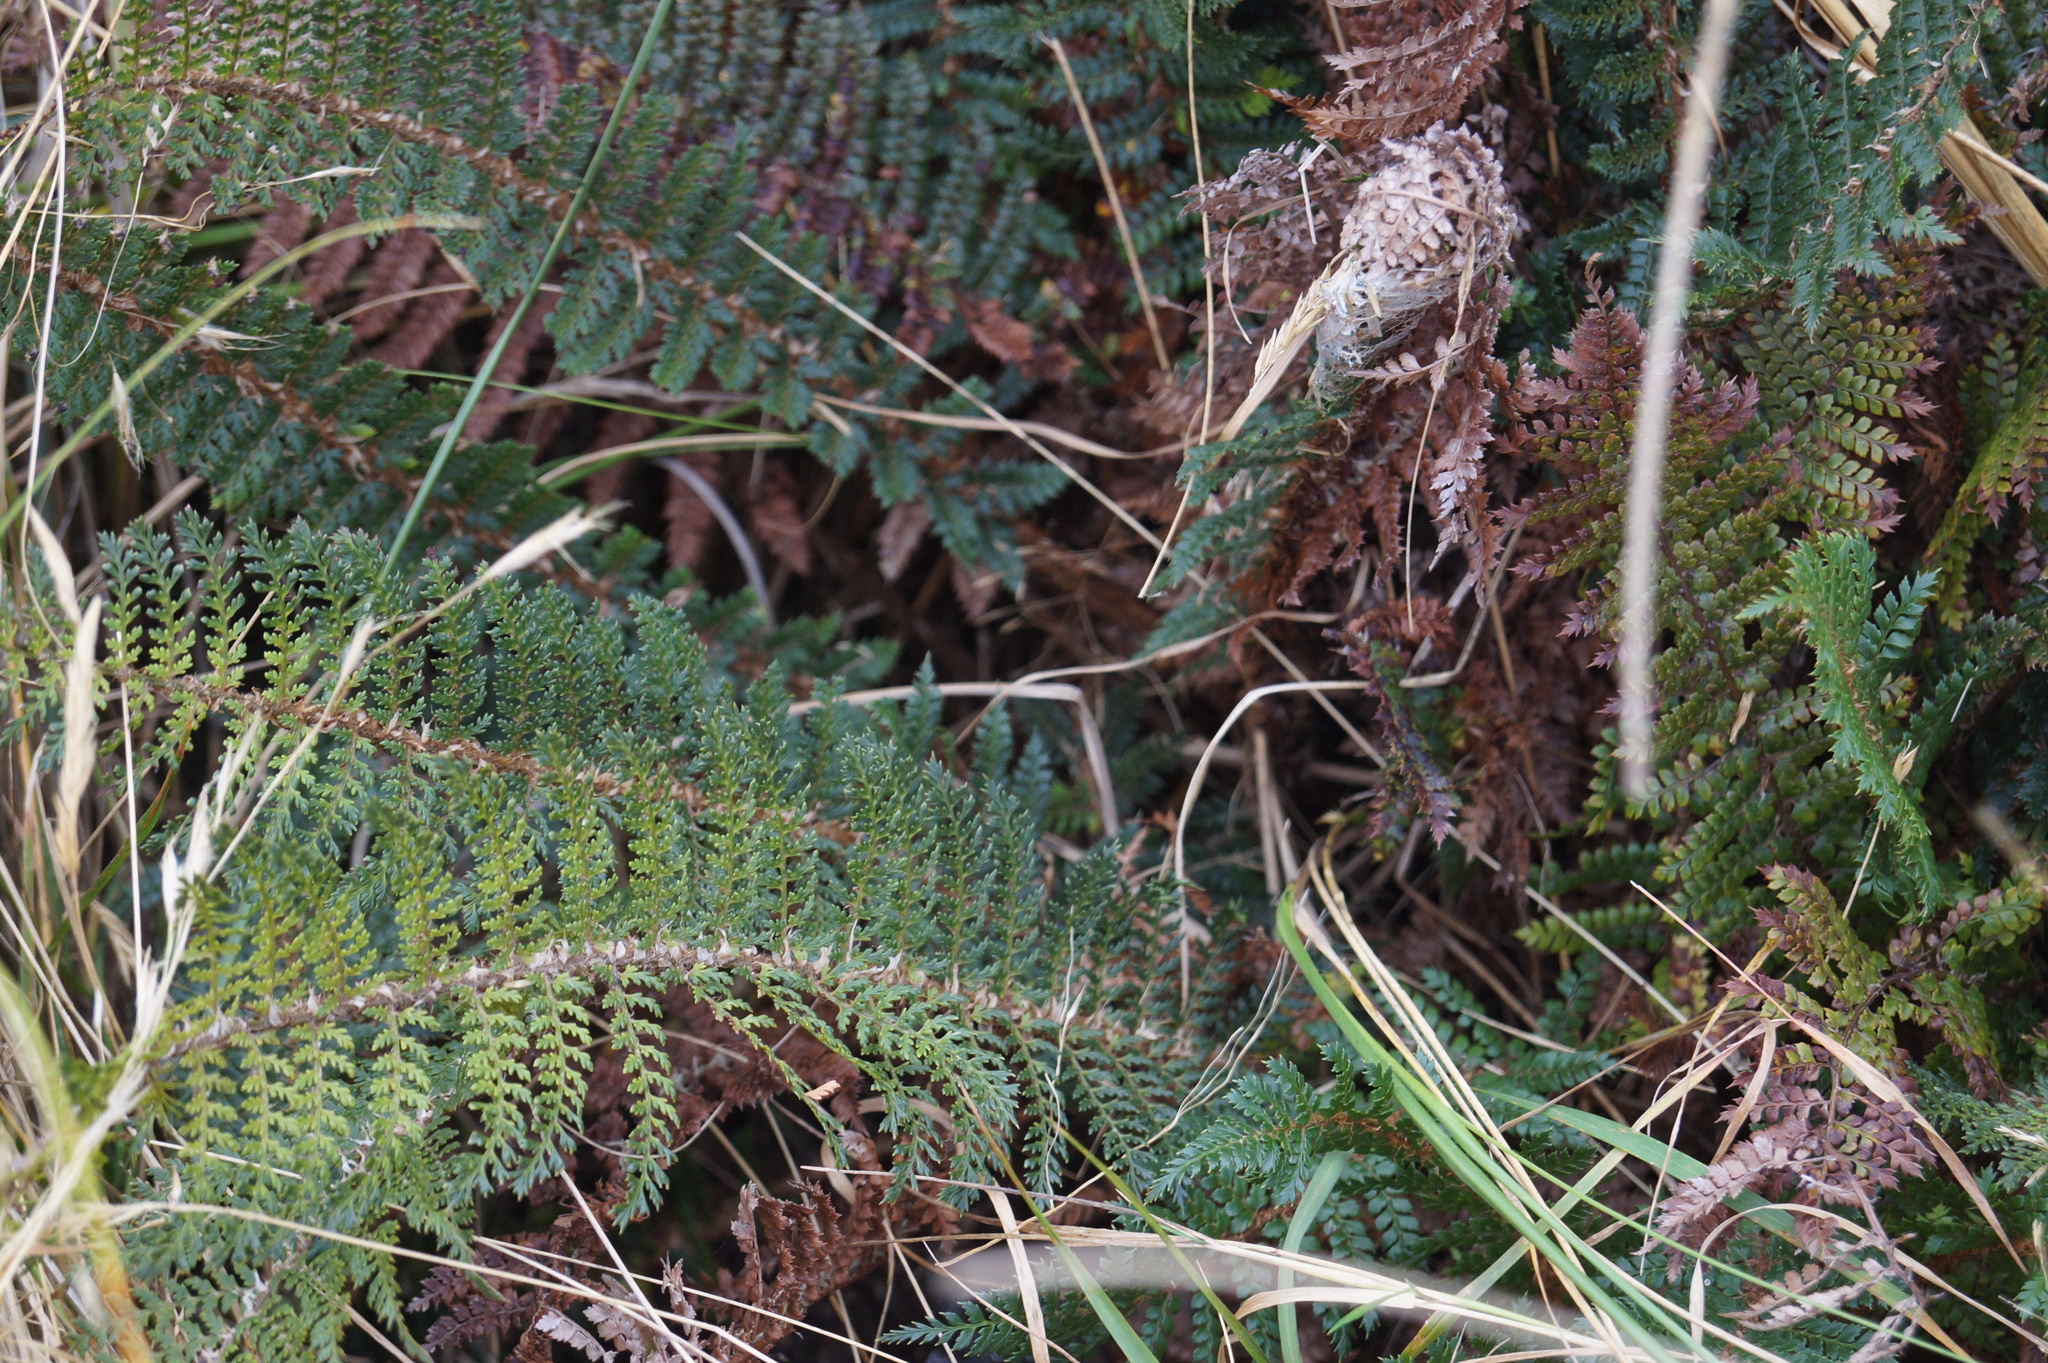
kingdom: Plantae
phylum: Tracheophyta
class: Polypodiopsida
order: Polypodiales
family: Dryopteridaceae
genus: Polystichum
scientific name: Polystichum vestitum
